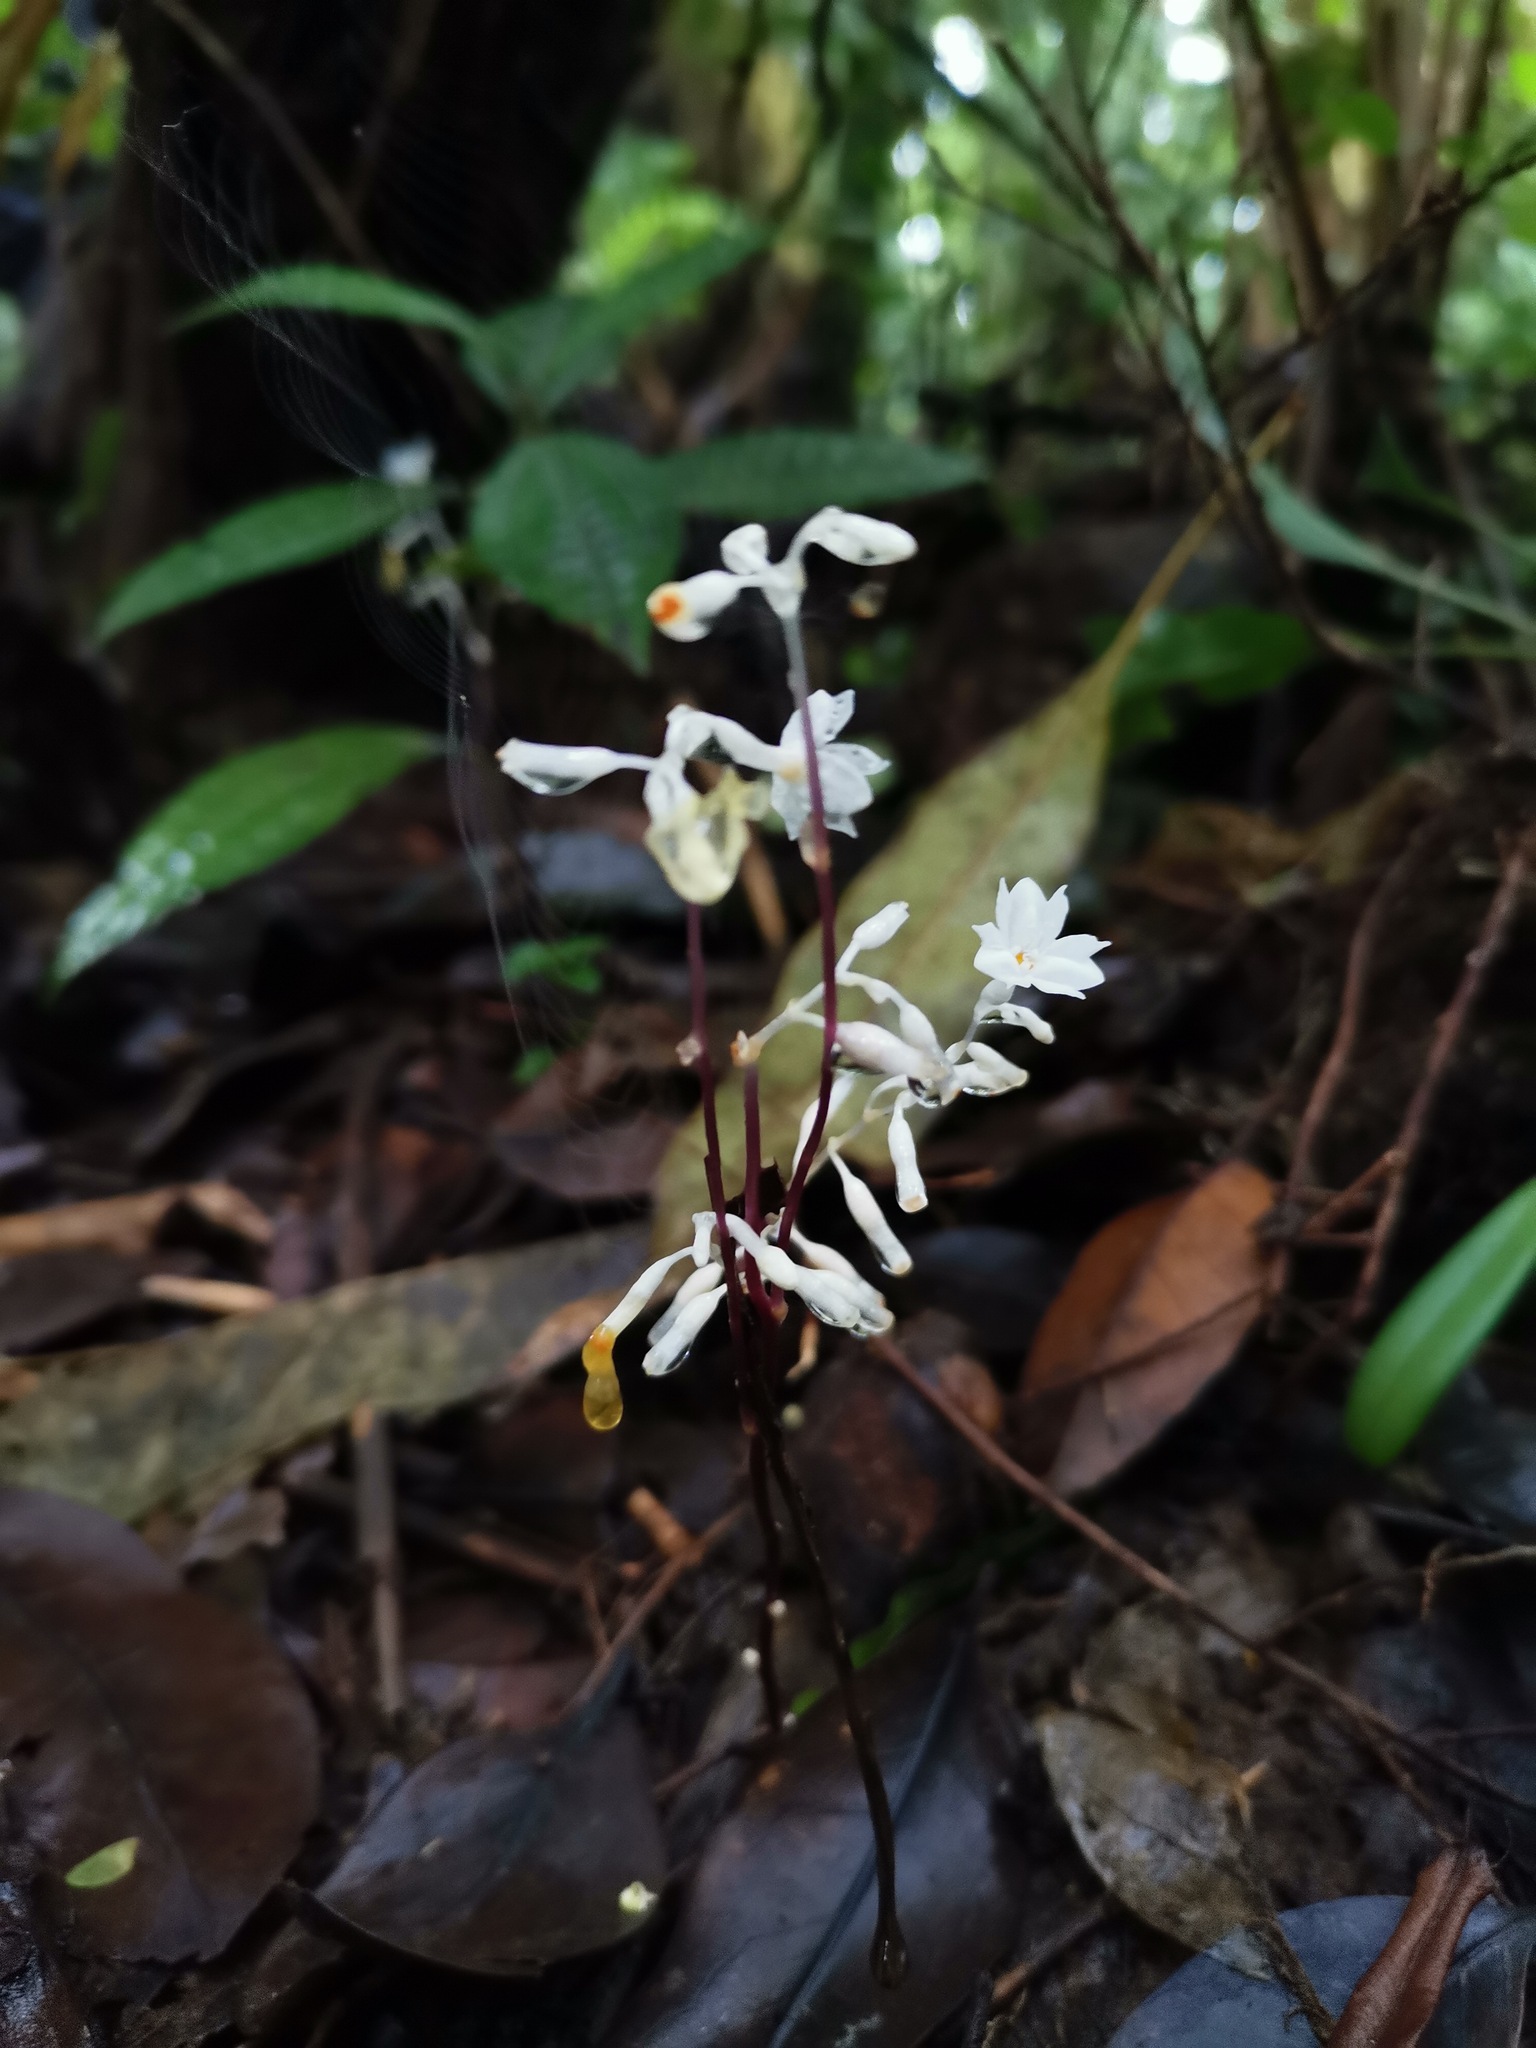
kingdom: Plantae
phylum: Tracheophyta
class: Liliopsida
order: Dioscoreales
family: Burmanniaceae
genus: Gymnosiphon
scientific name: Gymnosiphon suaveolens
